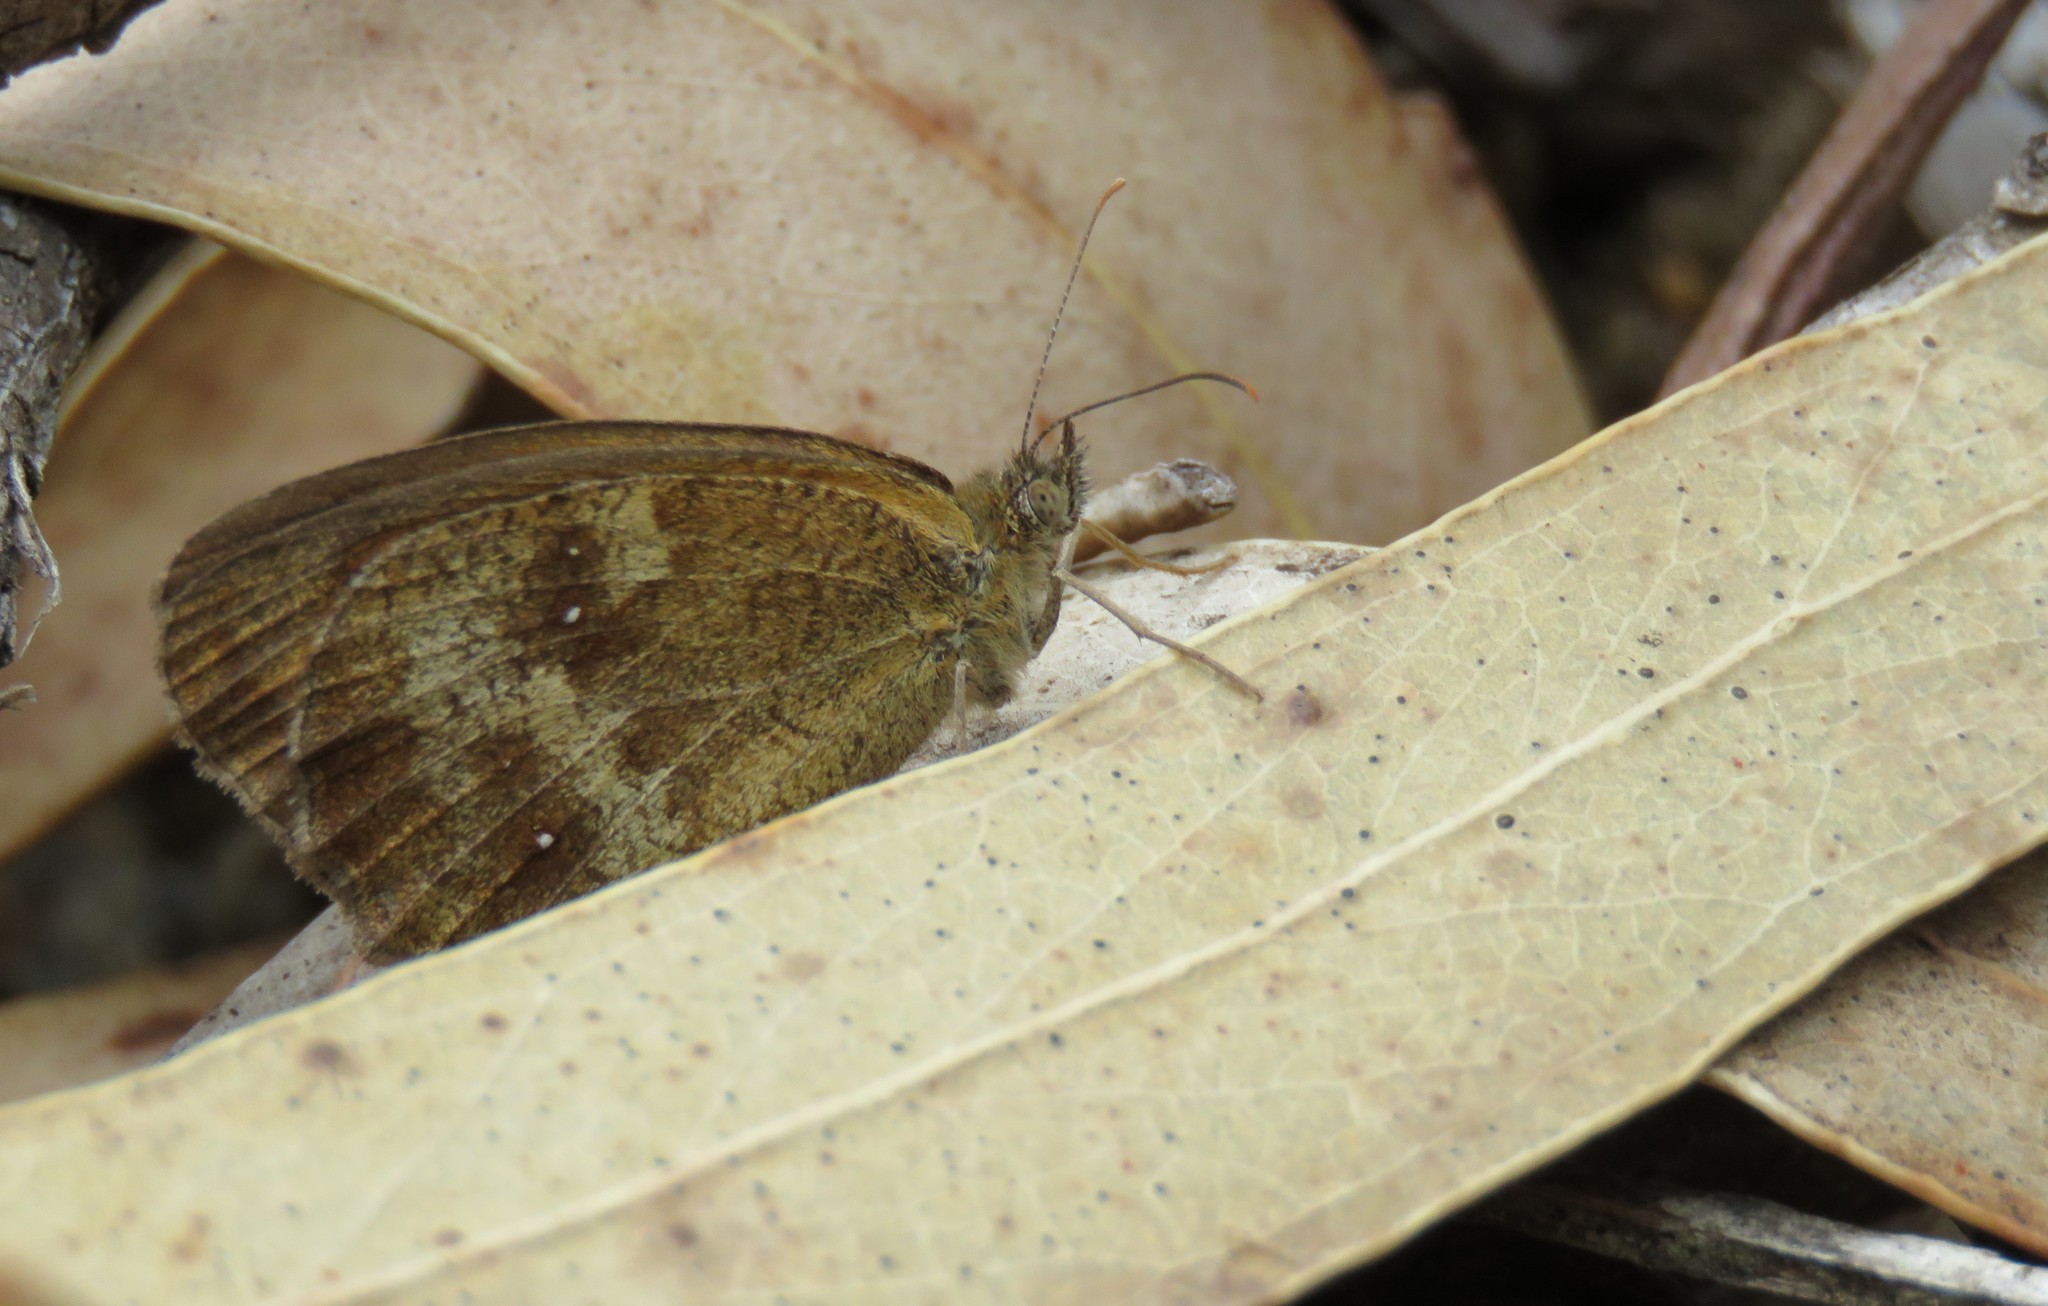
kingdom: Animalia
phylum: Arthropoda
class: Insecta
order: Lepidoptera
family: Nymphalidae
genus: Pyronia
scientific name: Pyronia tithonus
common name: Gatekeeper
